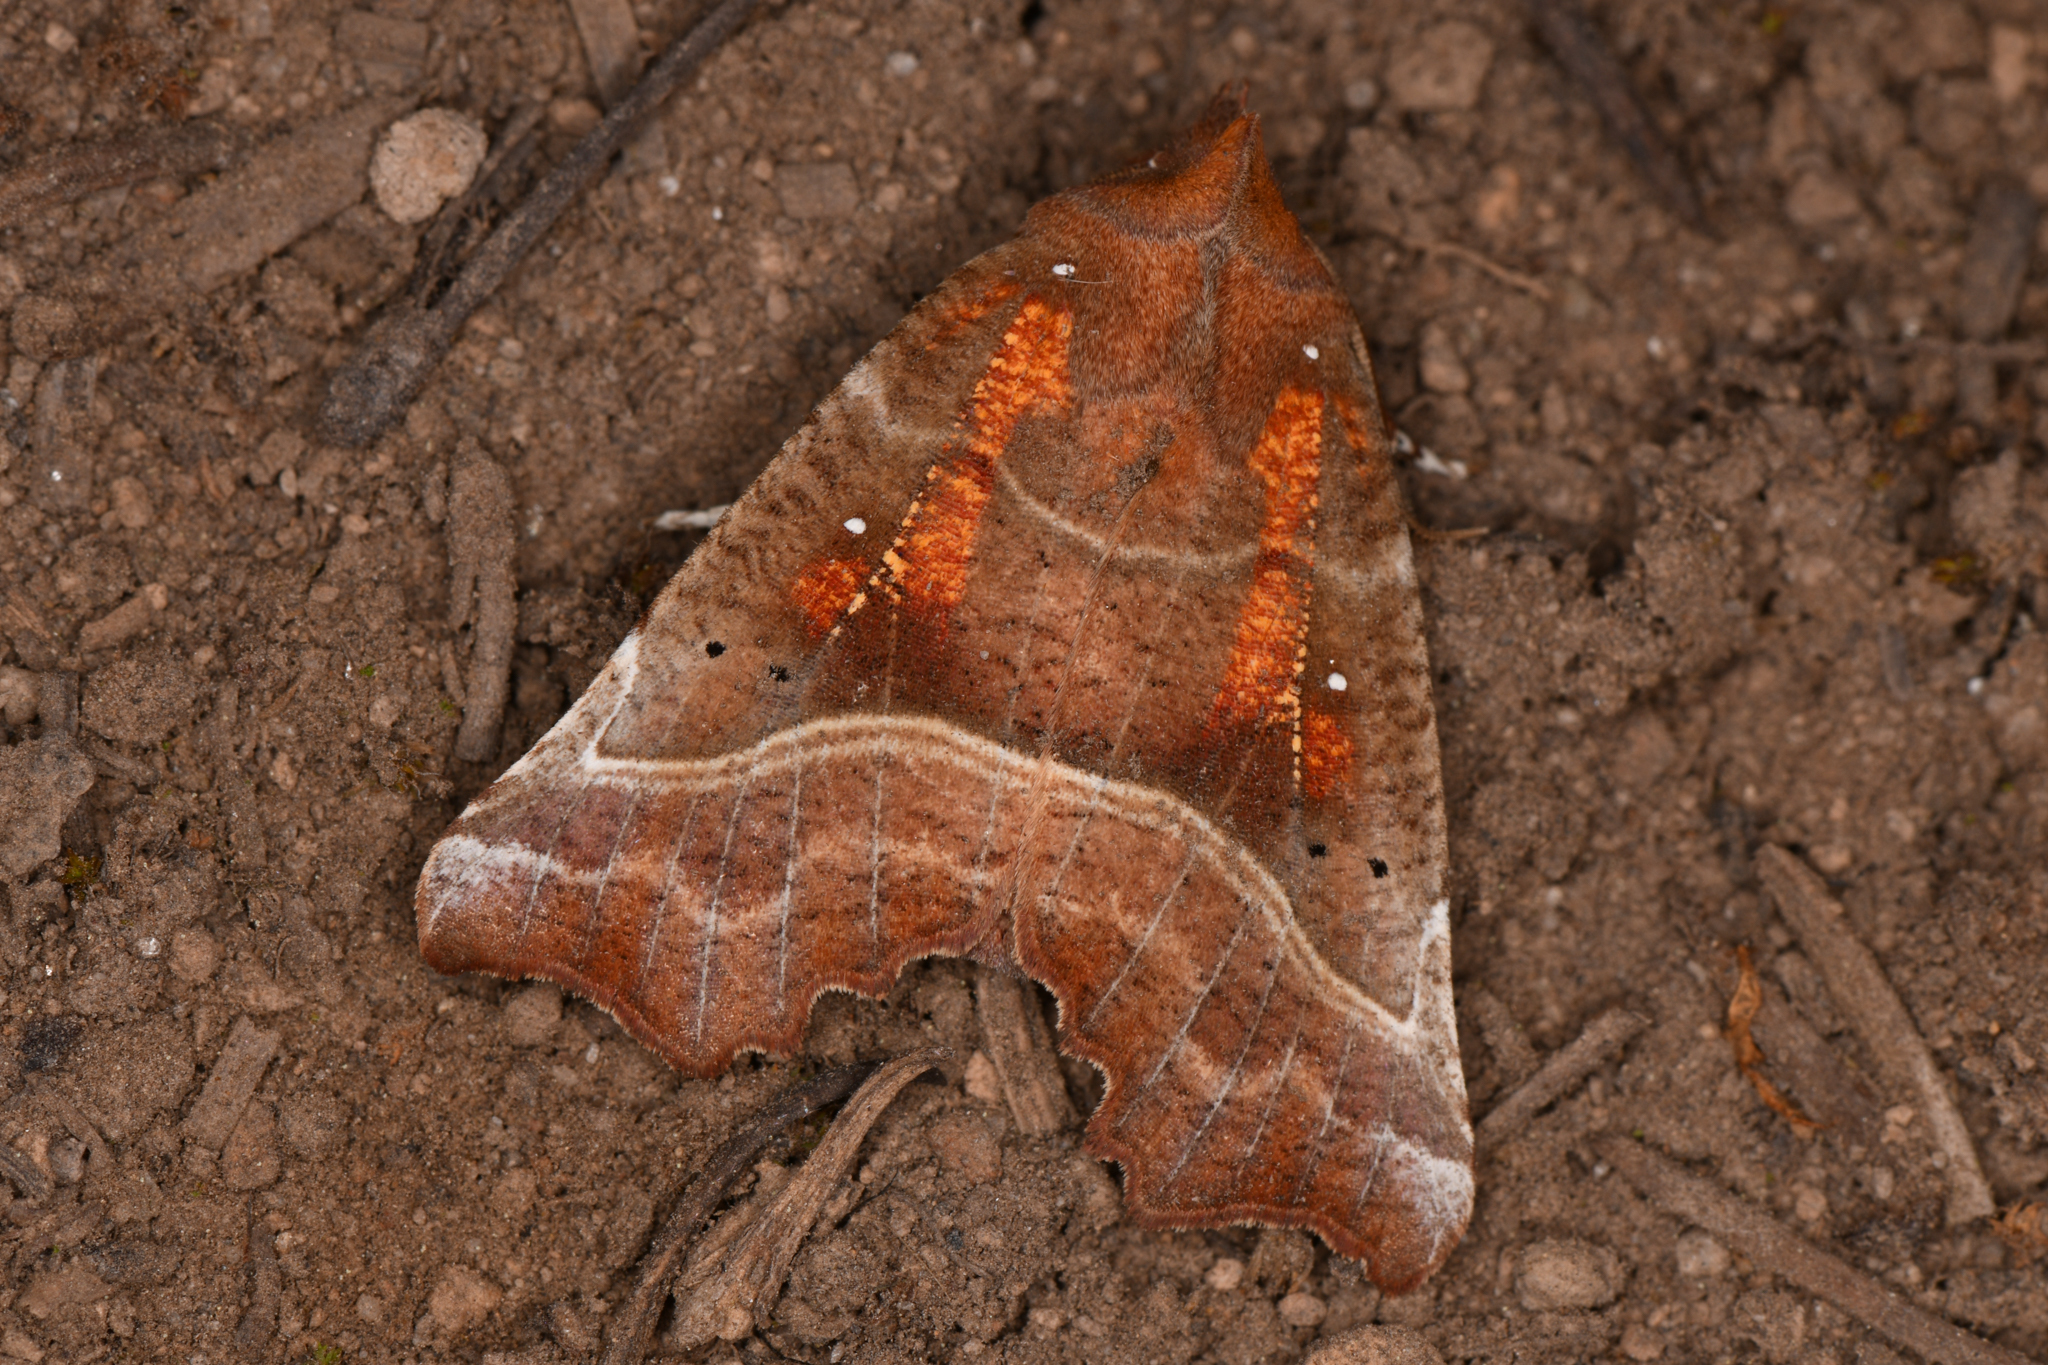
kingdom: Animalia
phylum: Arthropoda
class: Insecta
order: Lepidoptera
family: Erebidae
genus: Scoliopteryx
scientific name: Scoliopteryx libatrix
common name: Herald
